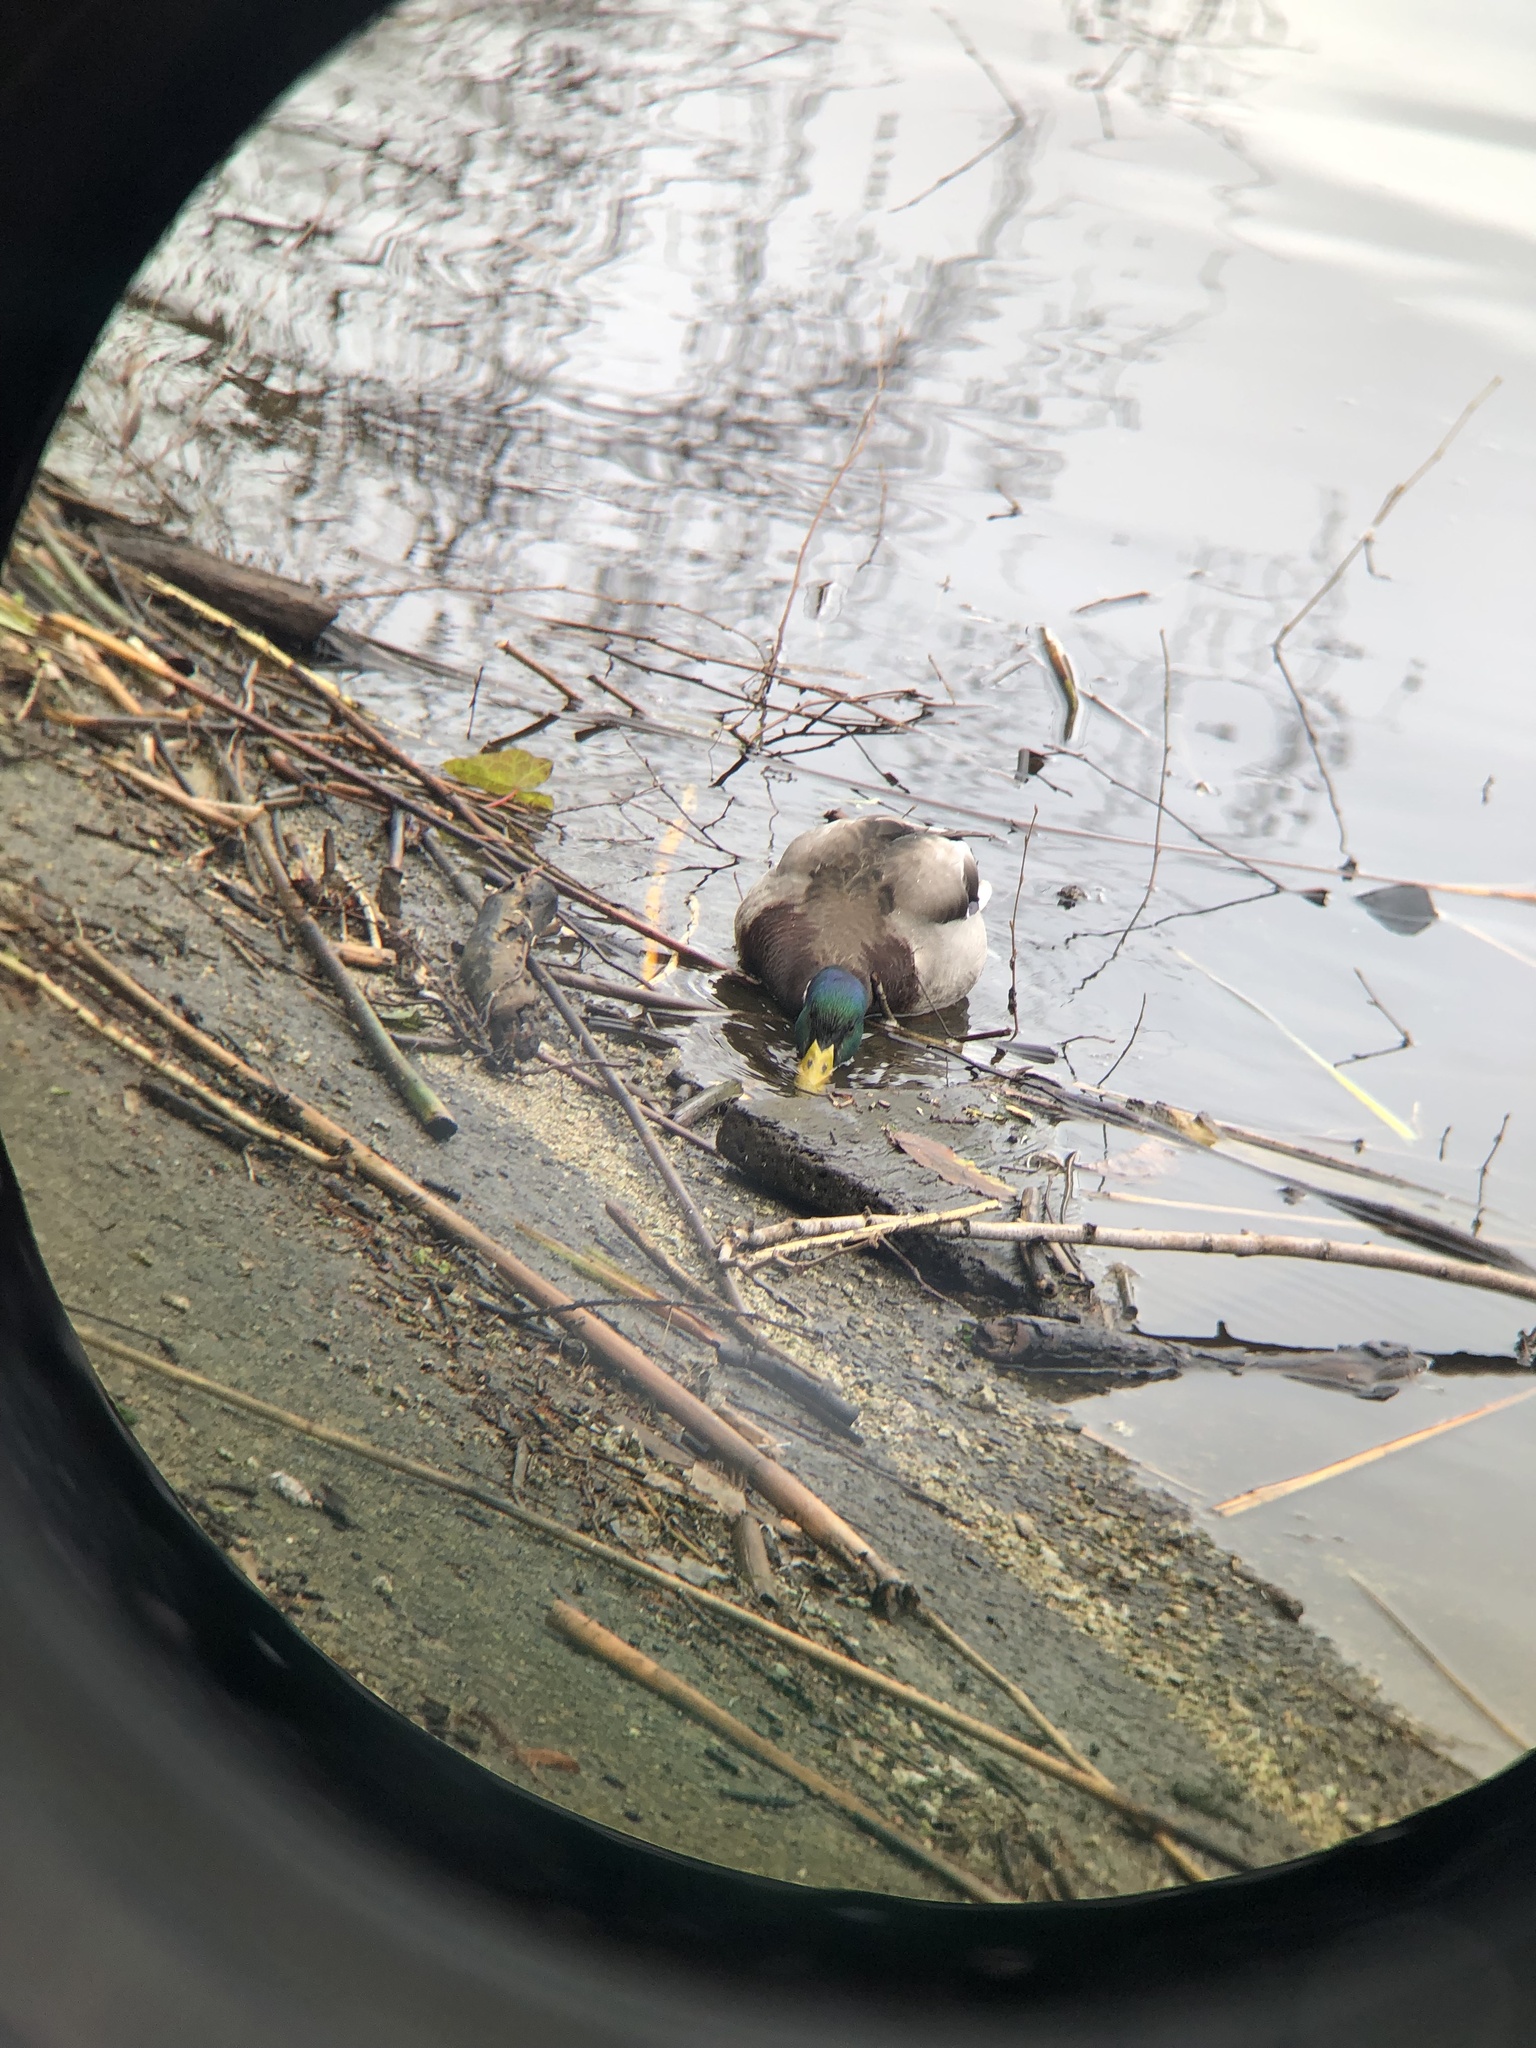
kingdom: Animalia
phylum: Chordata
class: Aves
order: Anseriformes
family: Anatidae
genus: Anas
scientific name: Anas platyrhynchos
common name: Mallard
